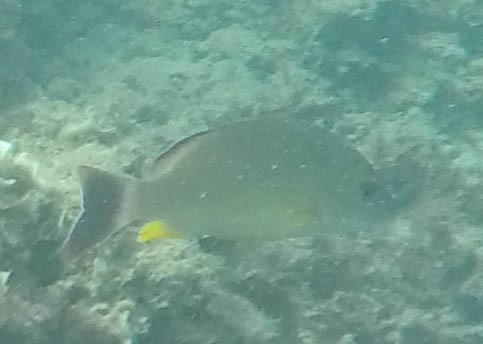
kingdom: Animalia
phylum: Chordata
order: Perciformes
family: Lutjanidae
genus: Lutjanus
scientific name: Lutjanus fulvus
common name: Blacktail snapper
